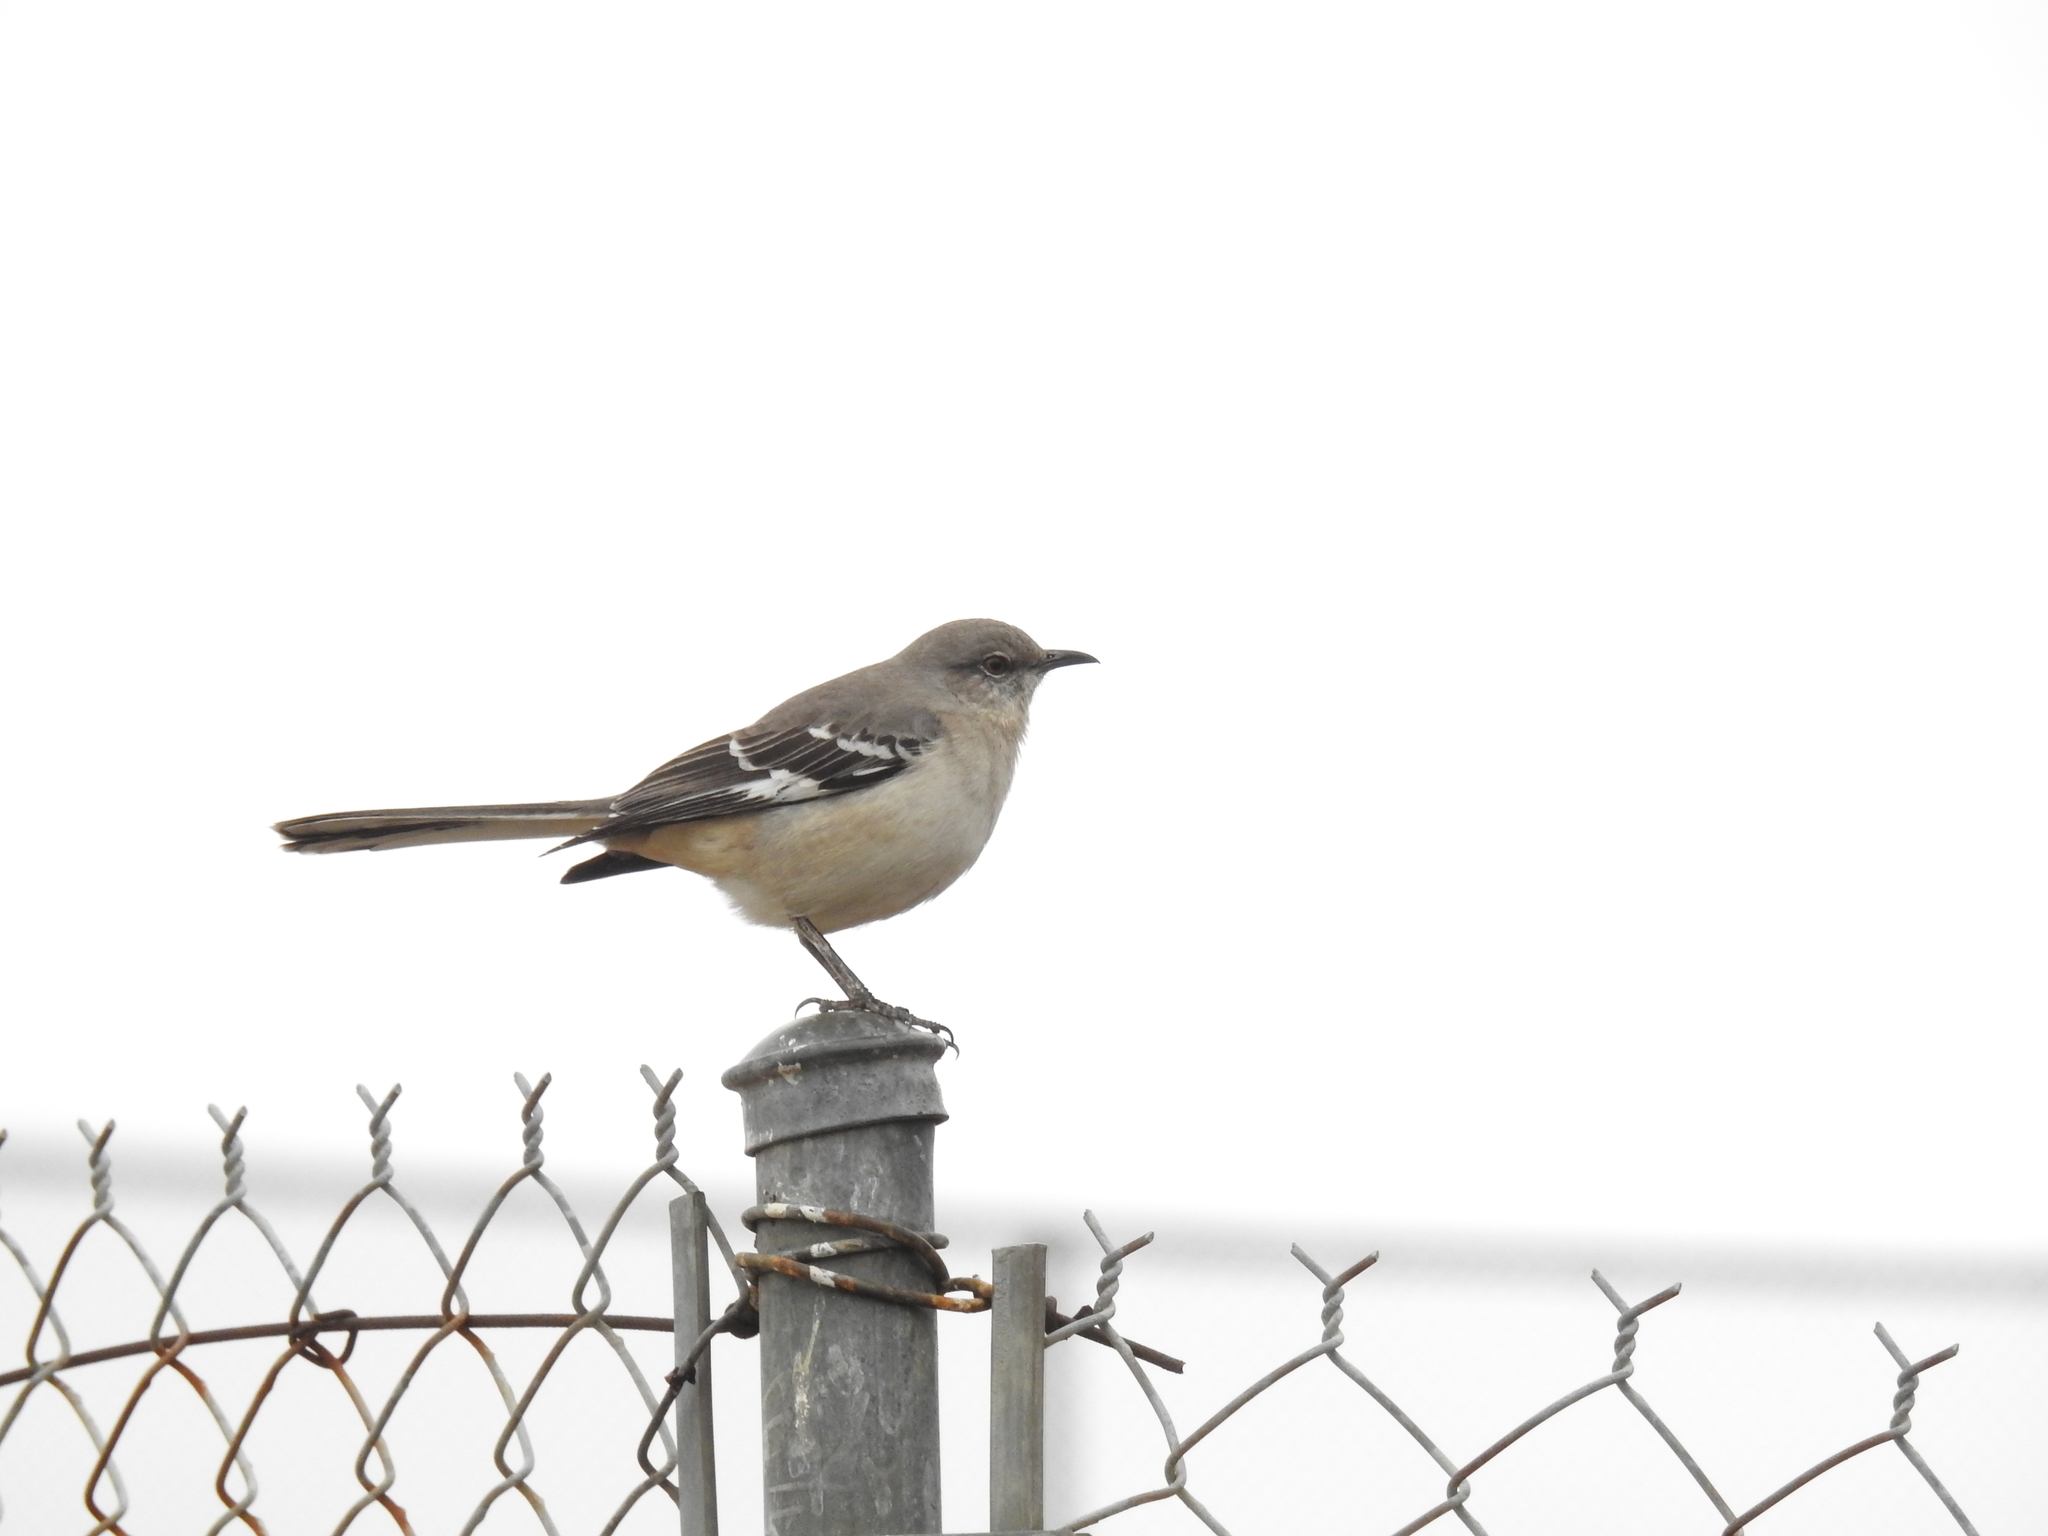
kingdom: Animalia
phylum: Chordata
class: Aves
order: Passeriformes
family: Mimidae
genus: Mimus
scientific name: Mimus polyglottos
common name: Northern mockingbird
